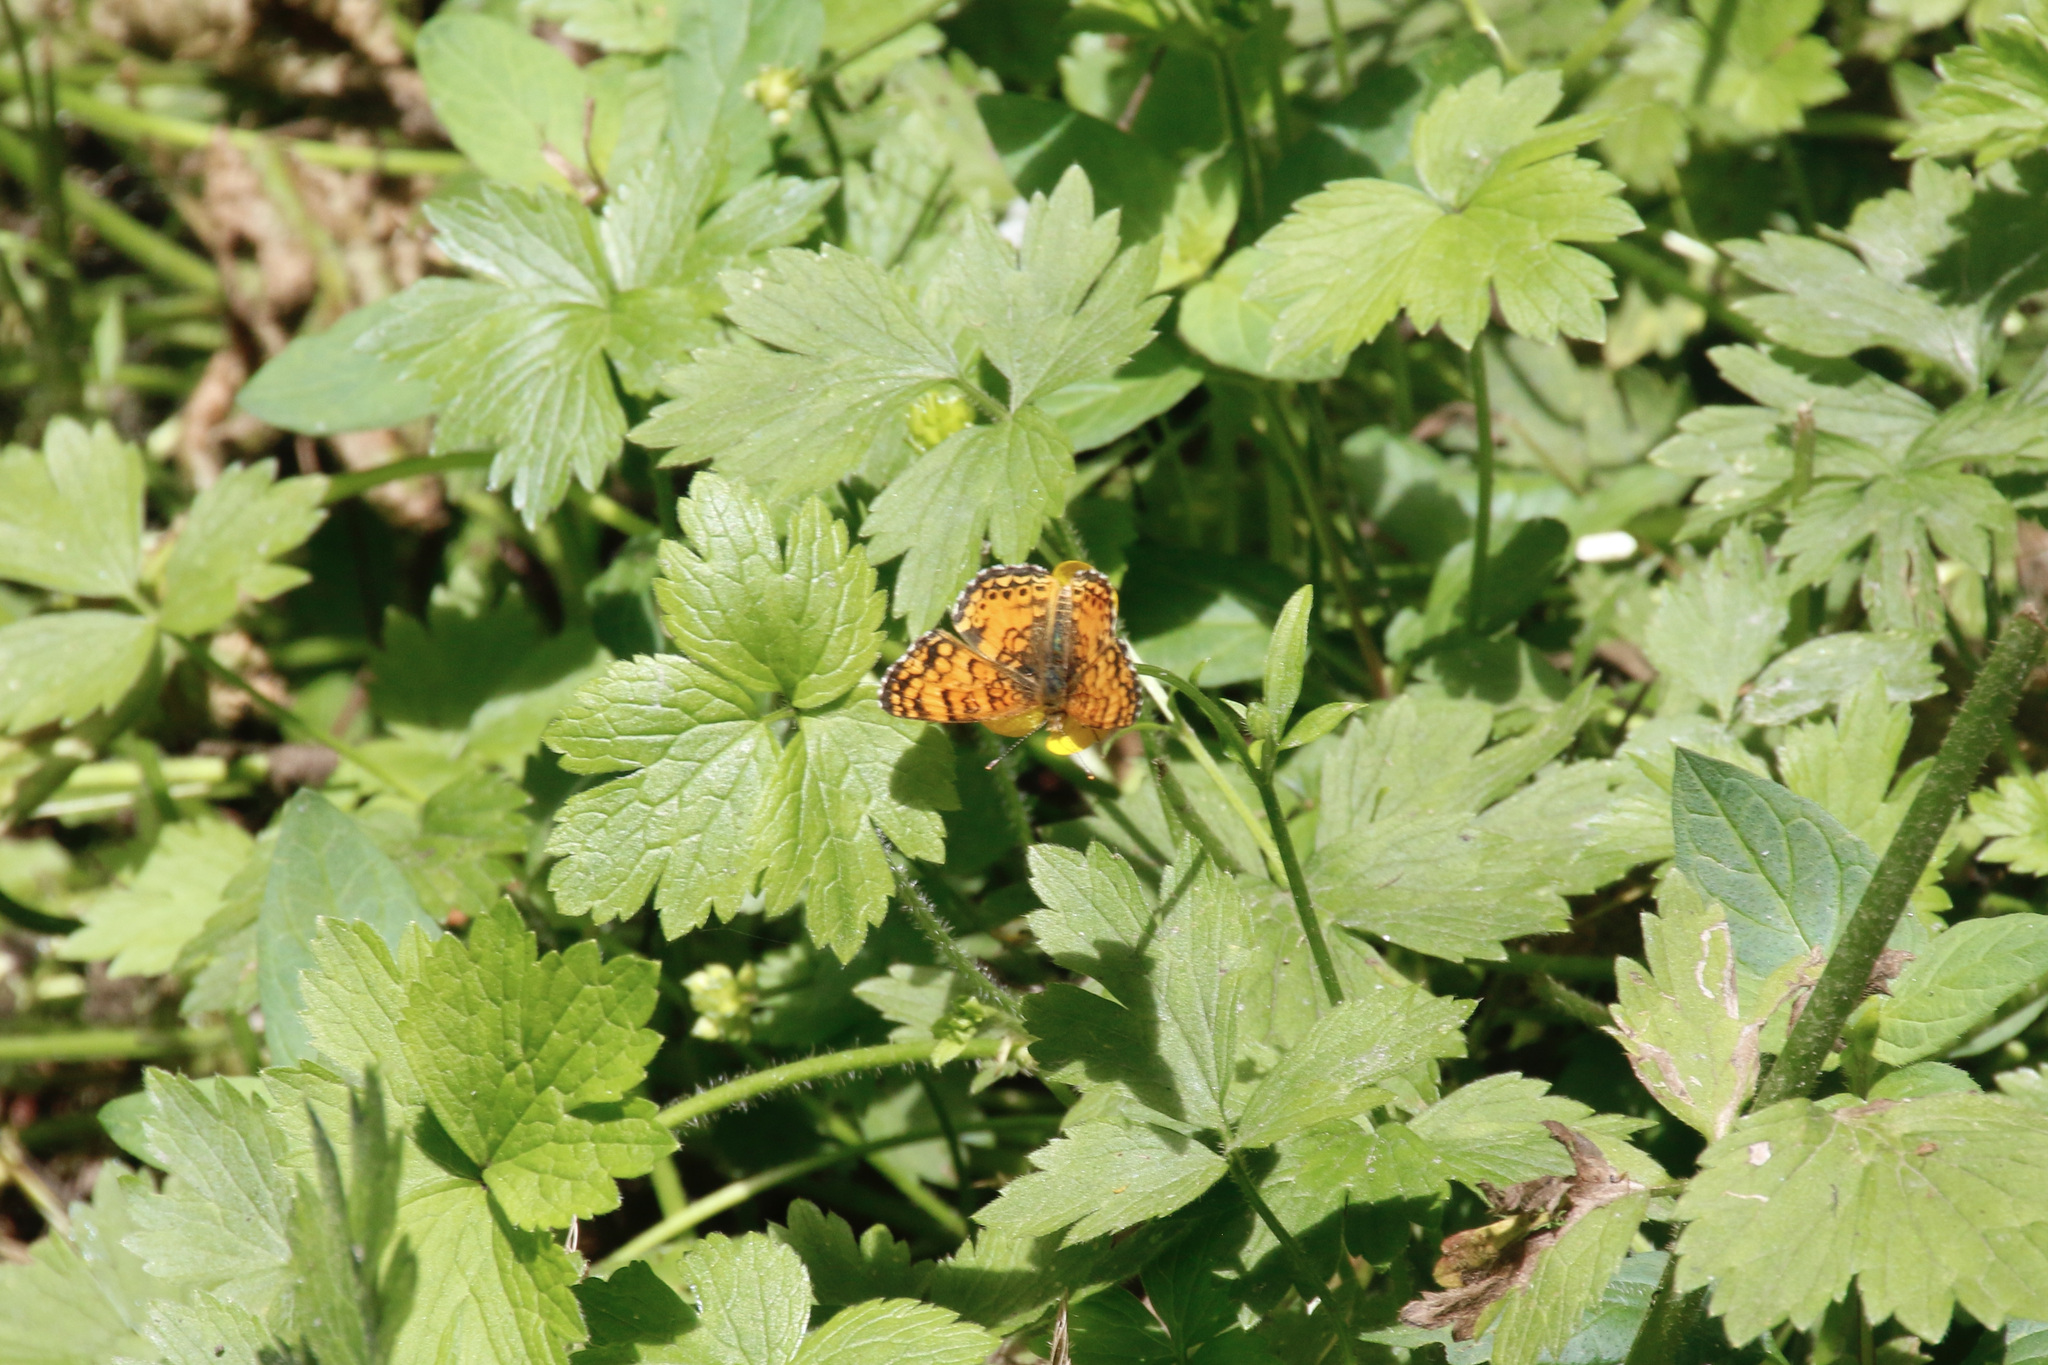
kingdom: Animalia
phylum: Arthropoda
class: Insecta
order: Lepidoptera
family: Nymphalidae
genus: Eresia
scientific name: Eresia aveyrona
